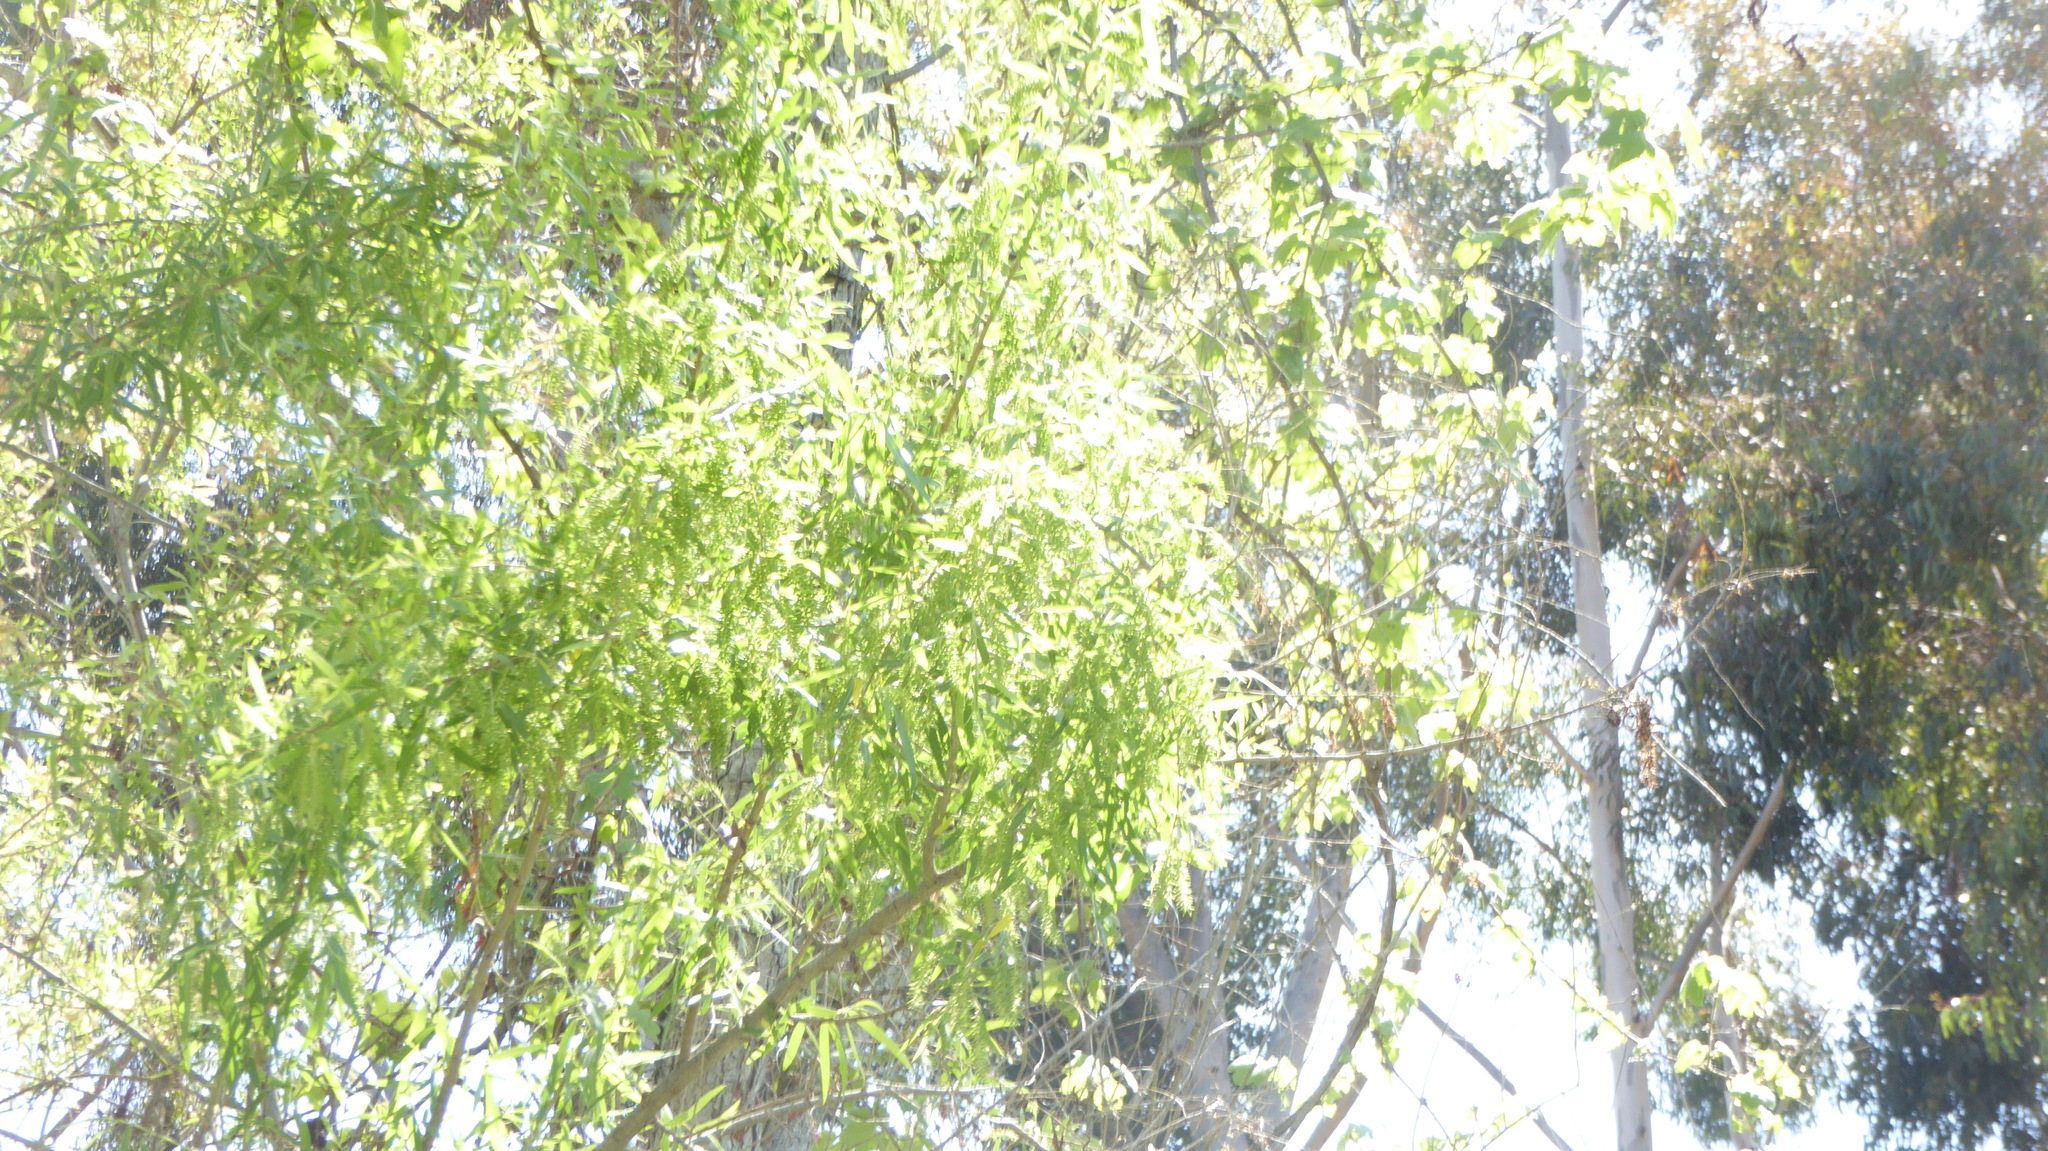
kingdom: Plantae
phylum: Tracheophyta
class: Magnoliopsida
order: Malpighiales
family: Salicaceae
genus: Salix
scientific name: Salix gooddingii
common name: Goodding's willow
